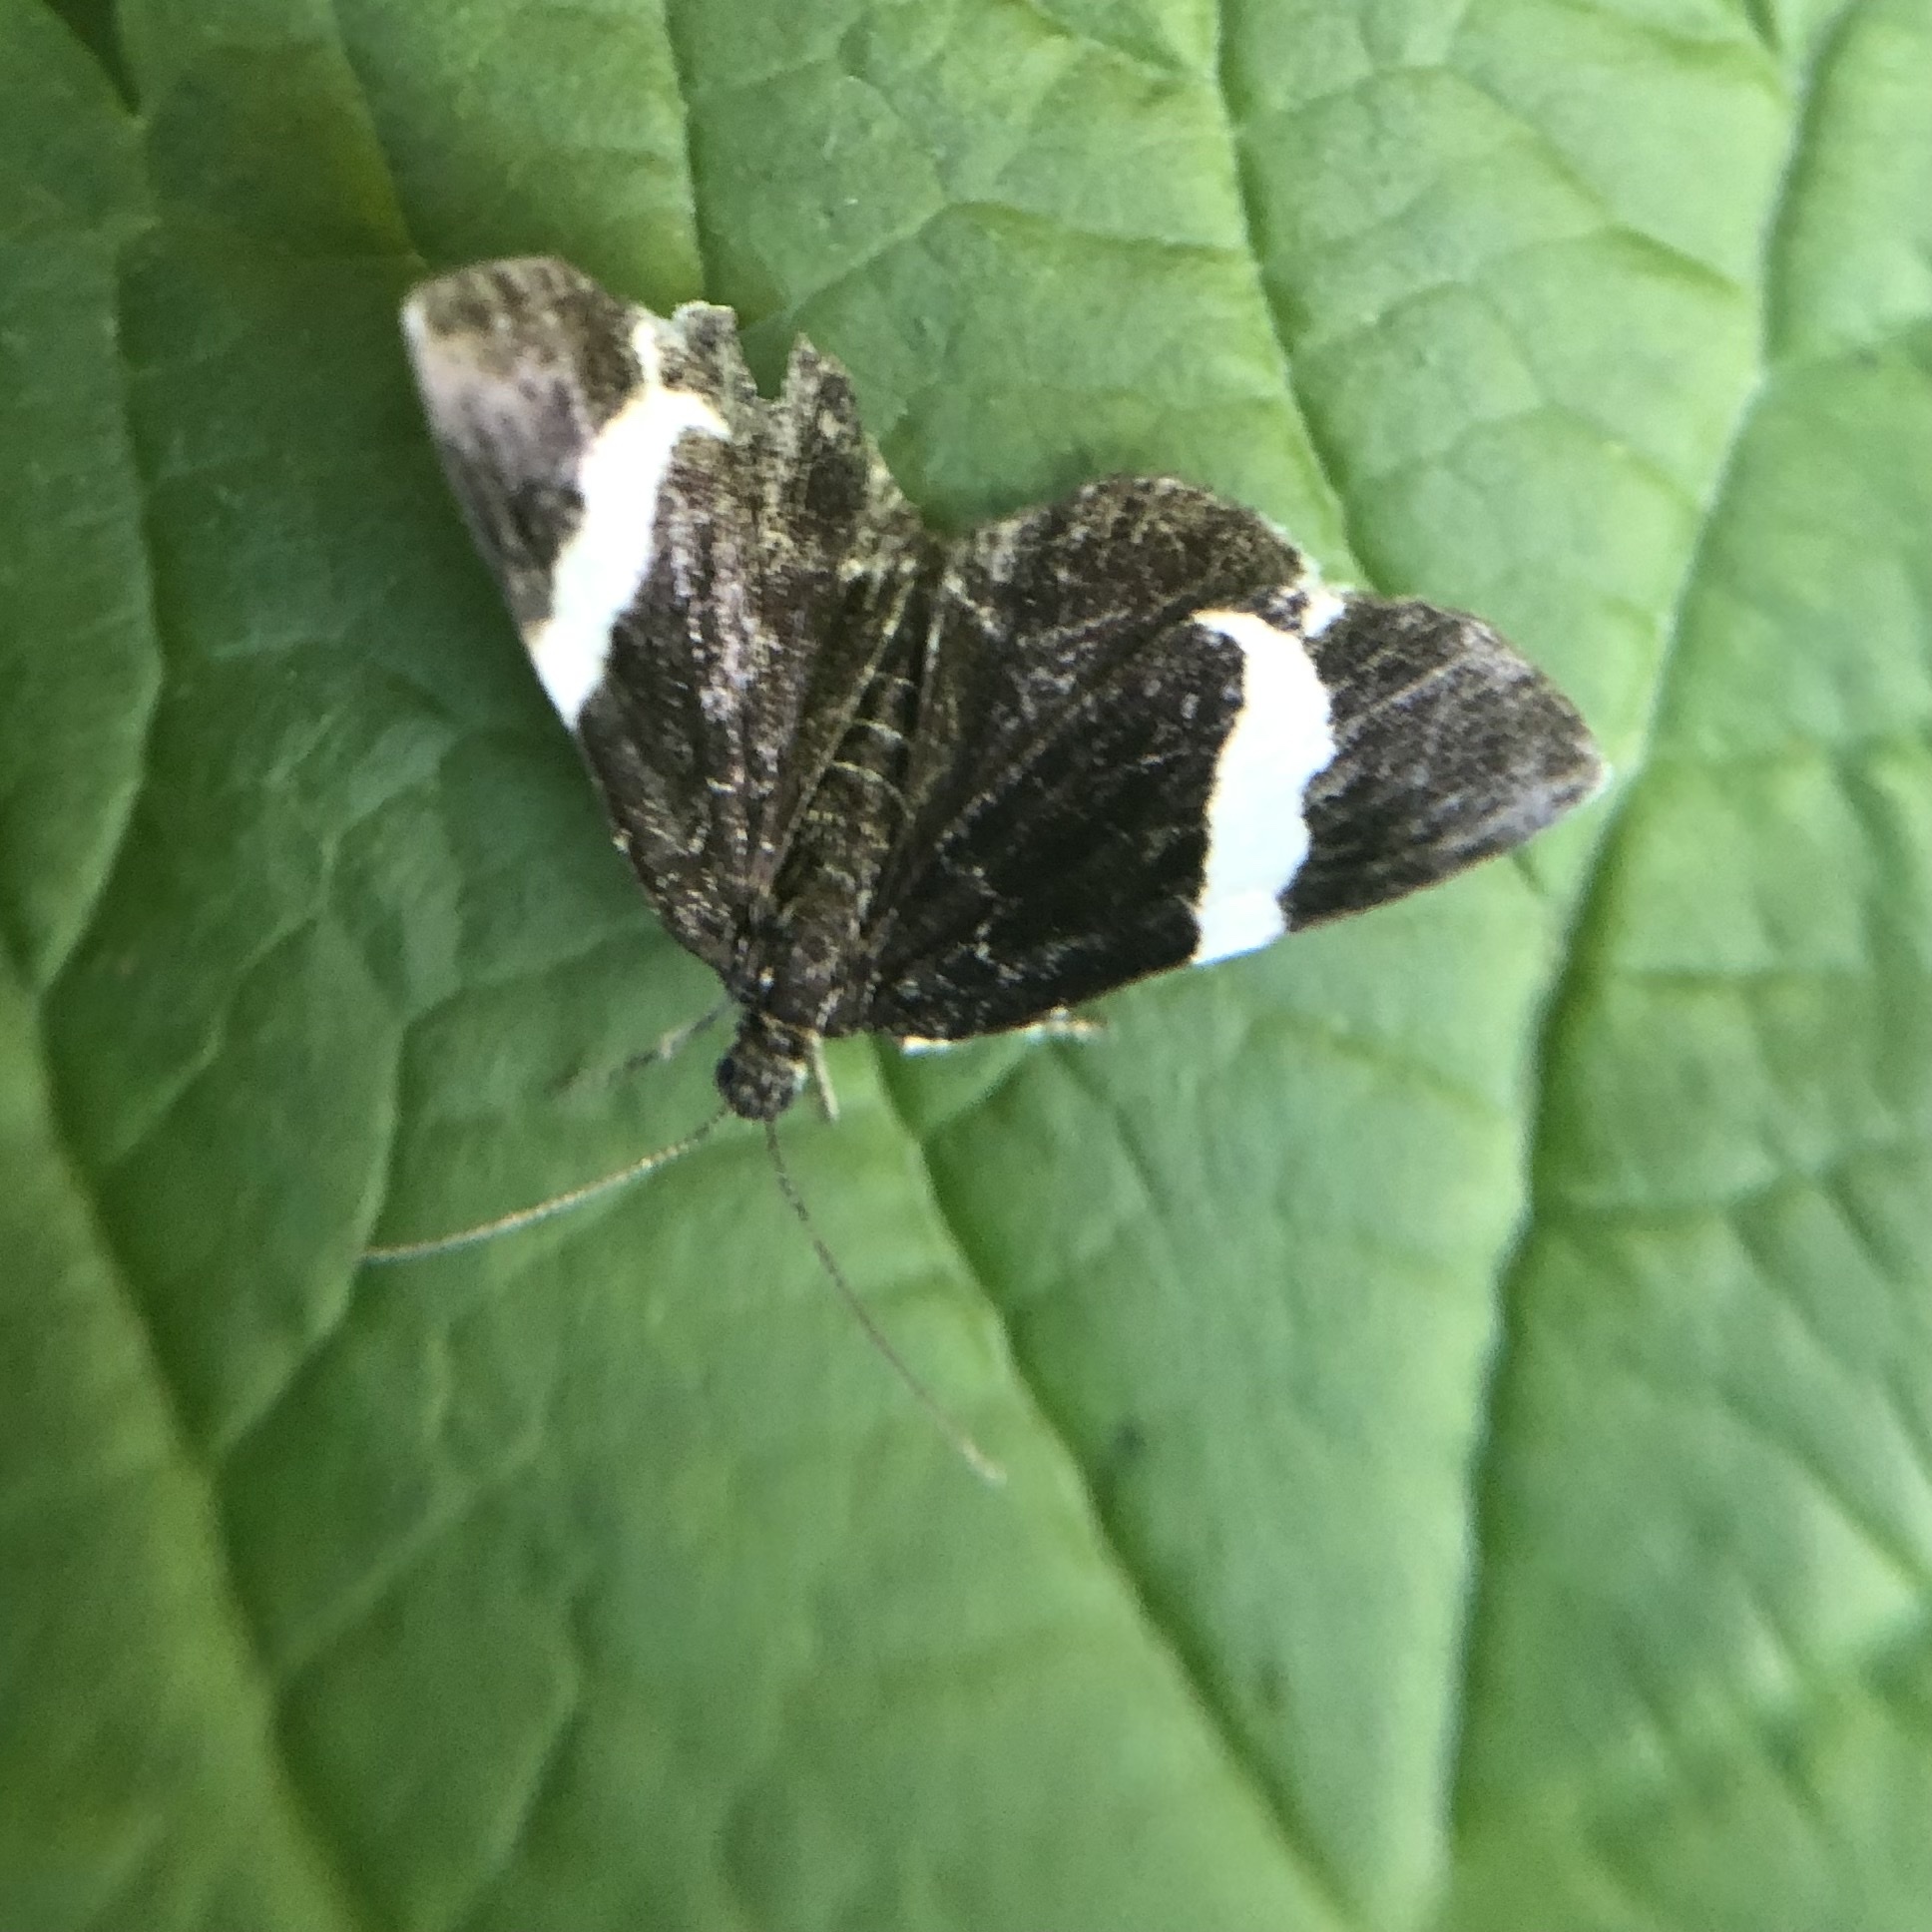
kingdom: Animalia
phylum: Arthropoda
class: Insecta
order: Lepidoptera
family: Geometridae
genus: Trichodezia
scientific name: Trichodezia albovittata
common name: White striped black
